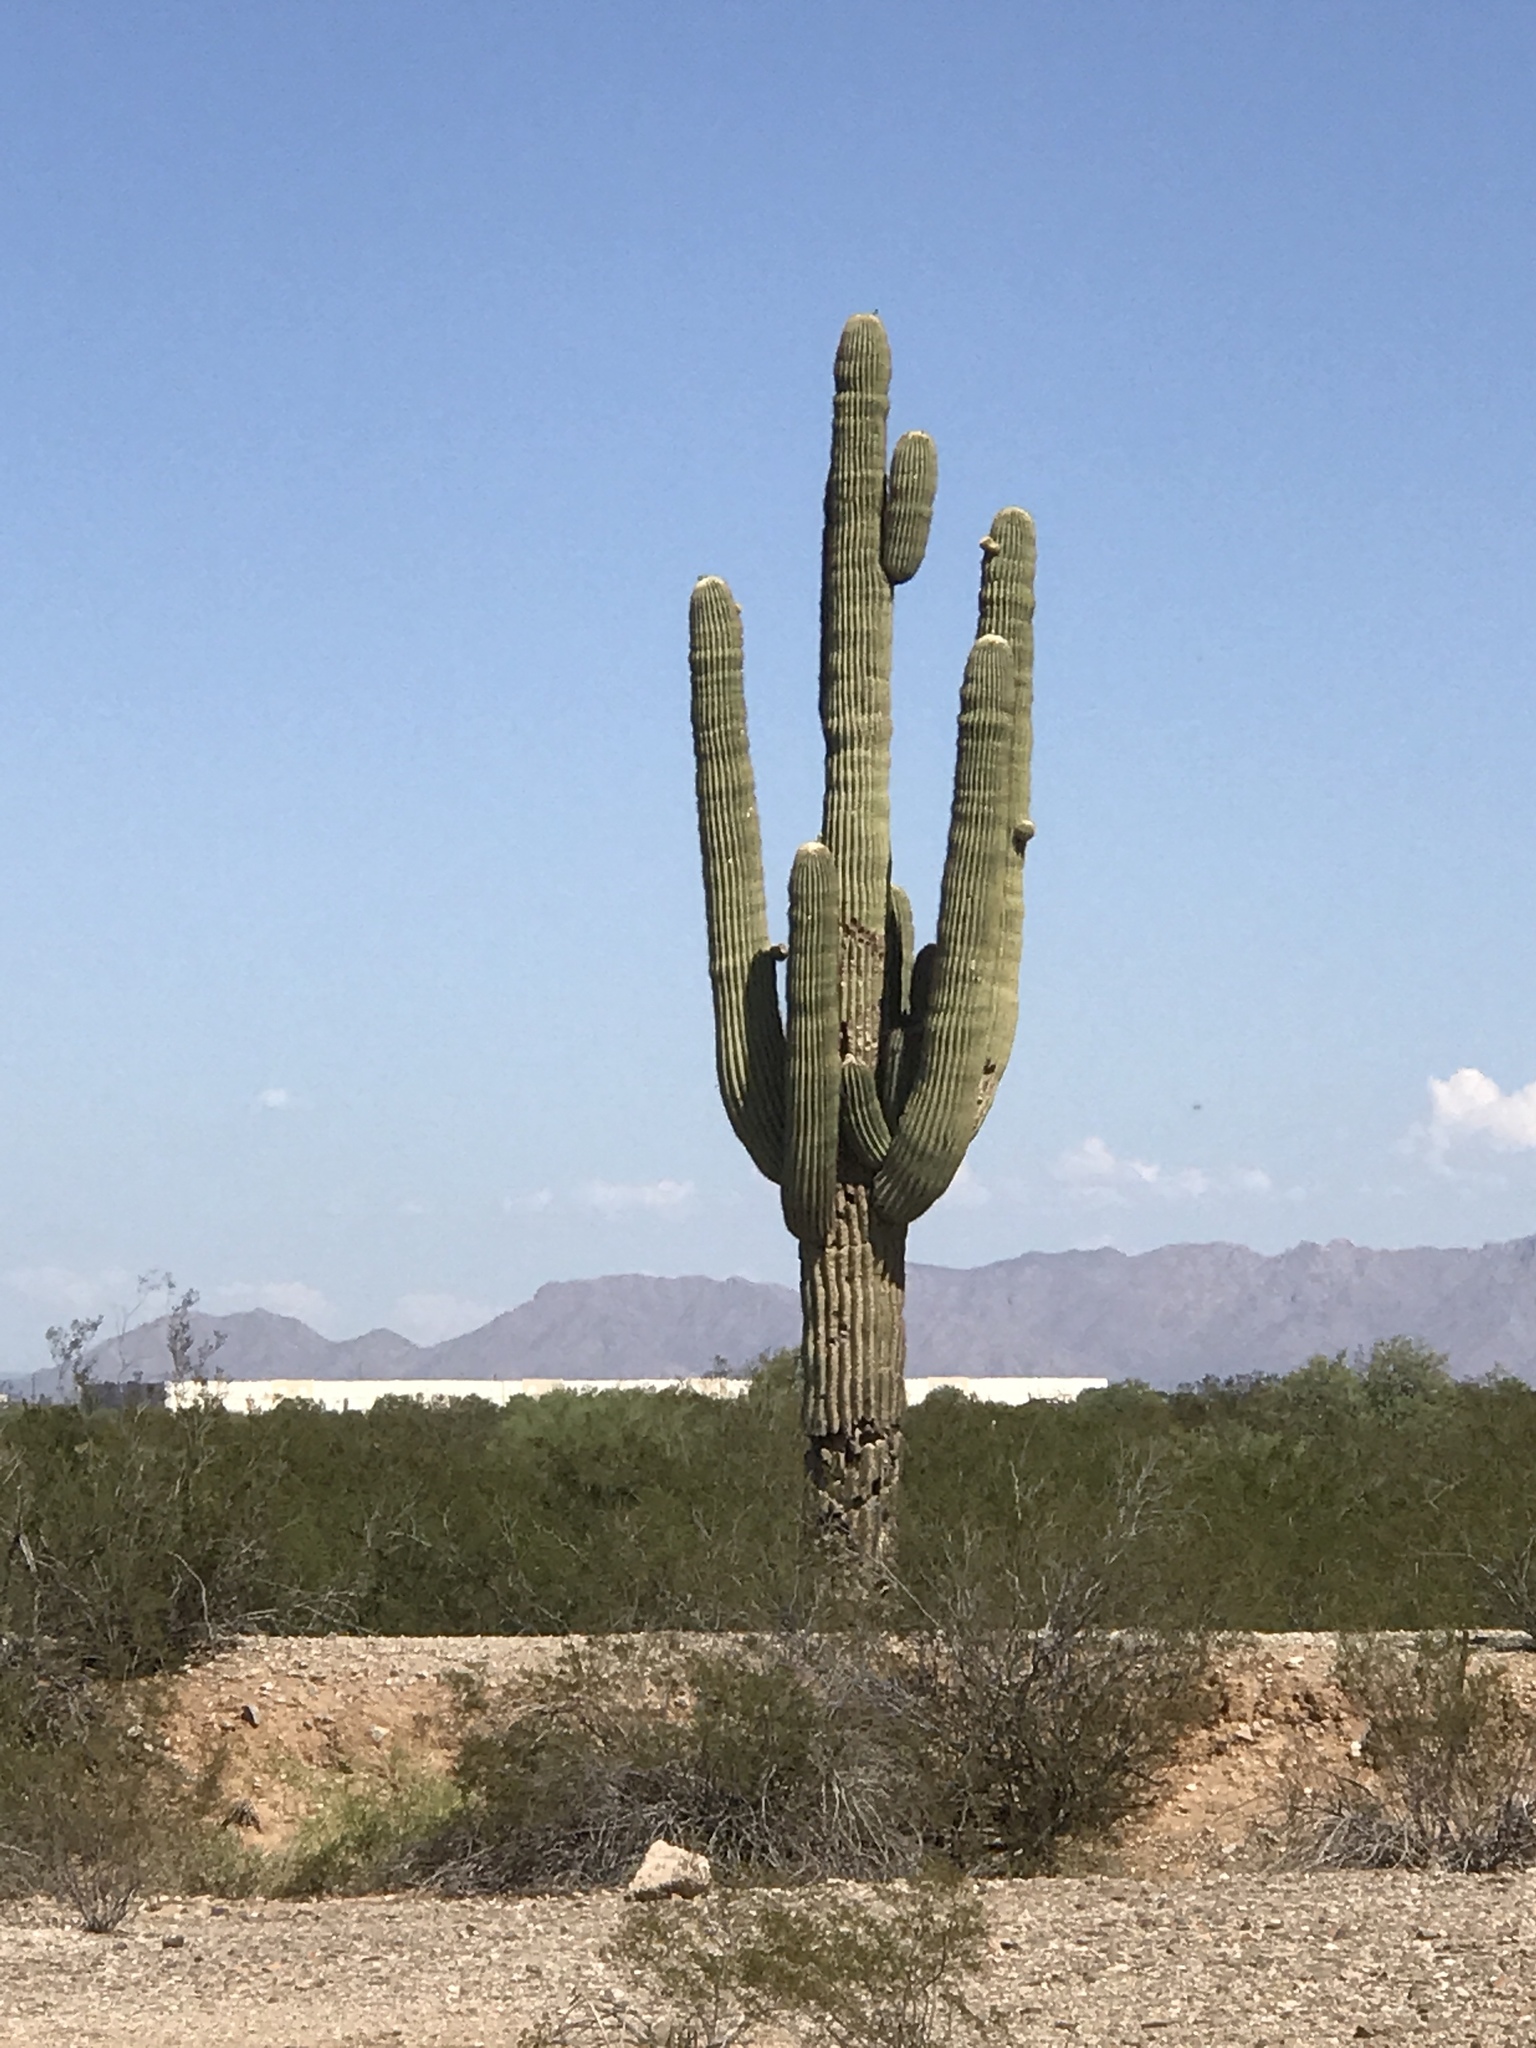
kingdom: Plantae
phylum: Tracheophyta
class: Magnoliopsida
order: Caryophyllales
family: Cactaceae
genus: Carnegiea
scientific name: Carnegiea gigantea
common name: Saguaro
